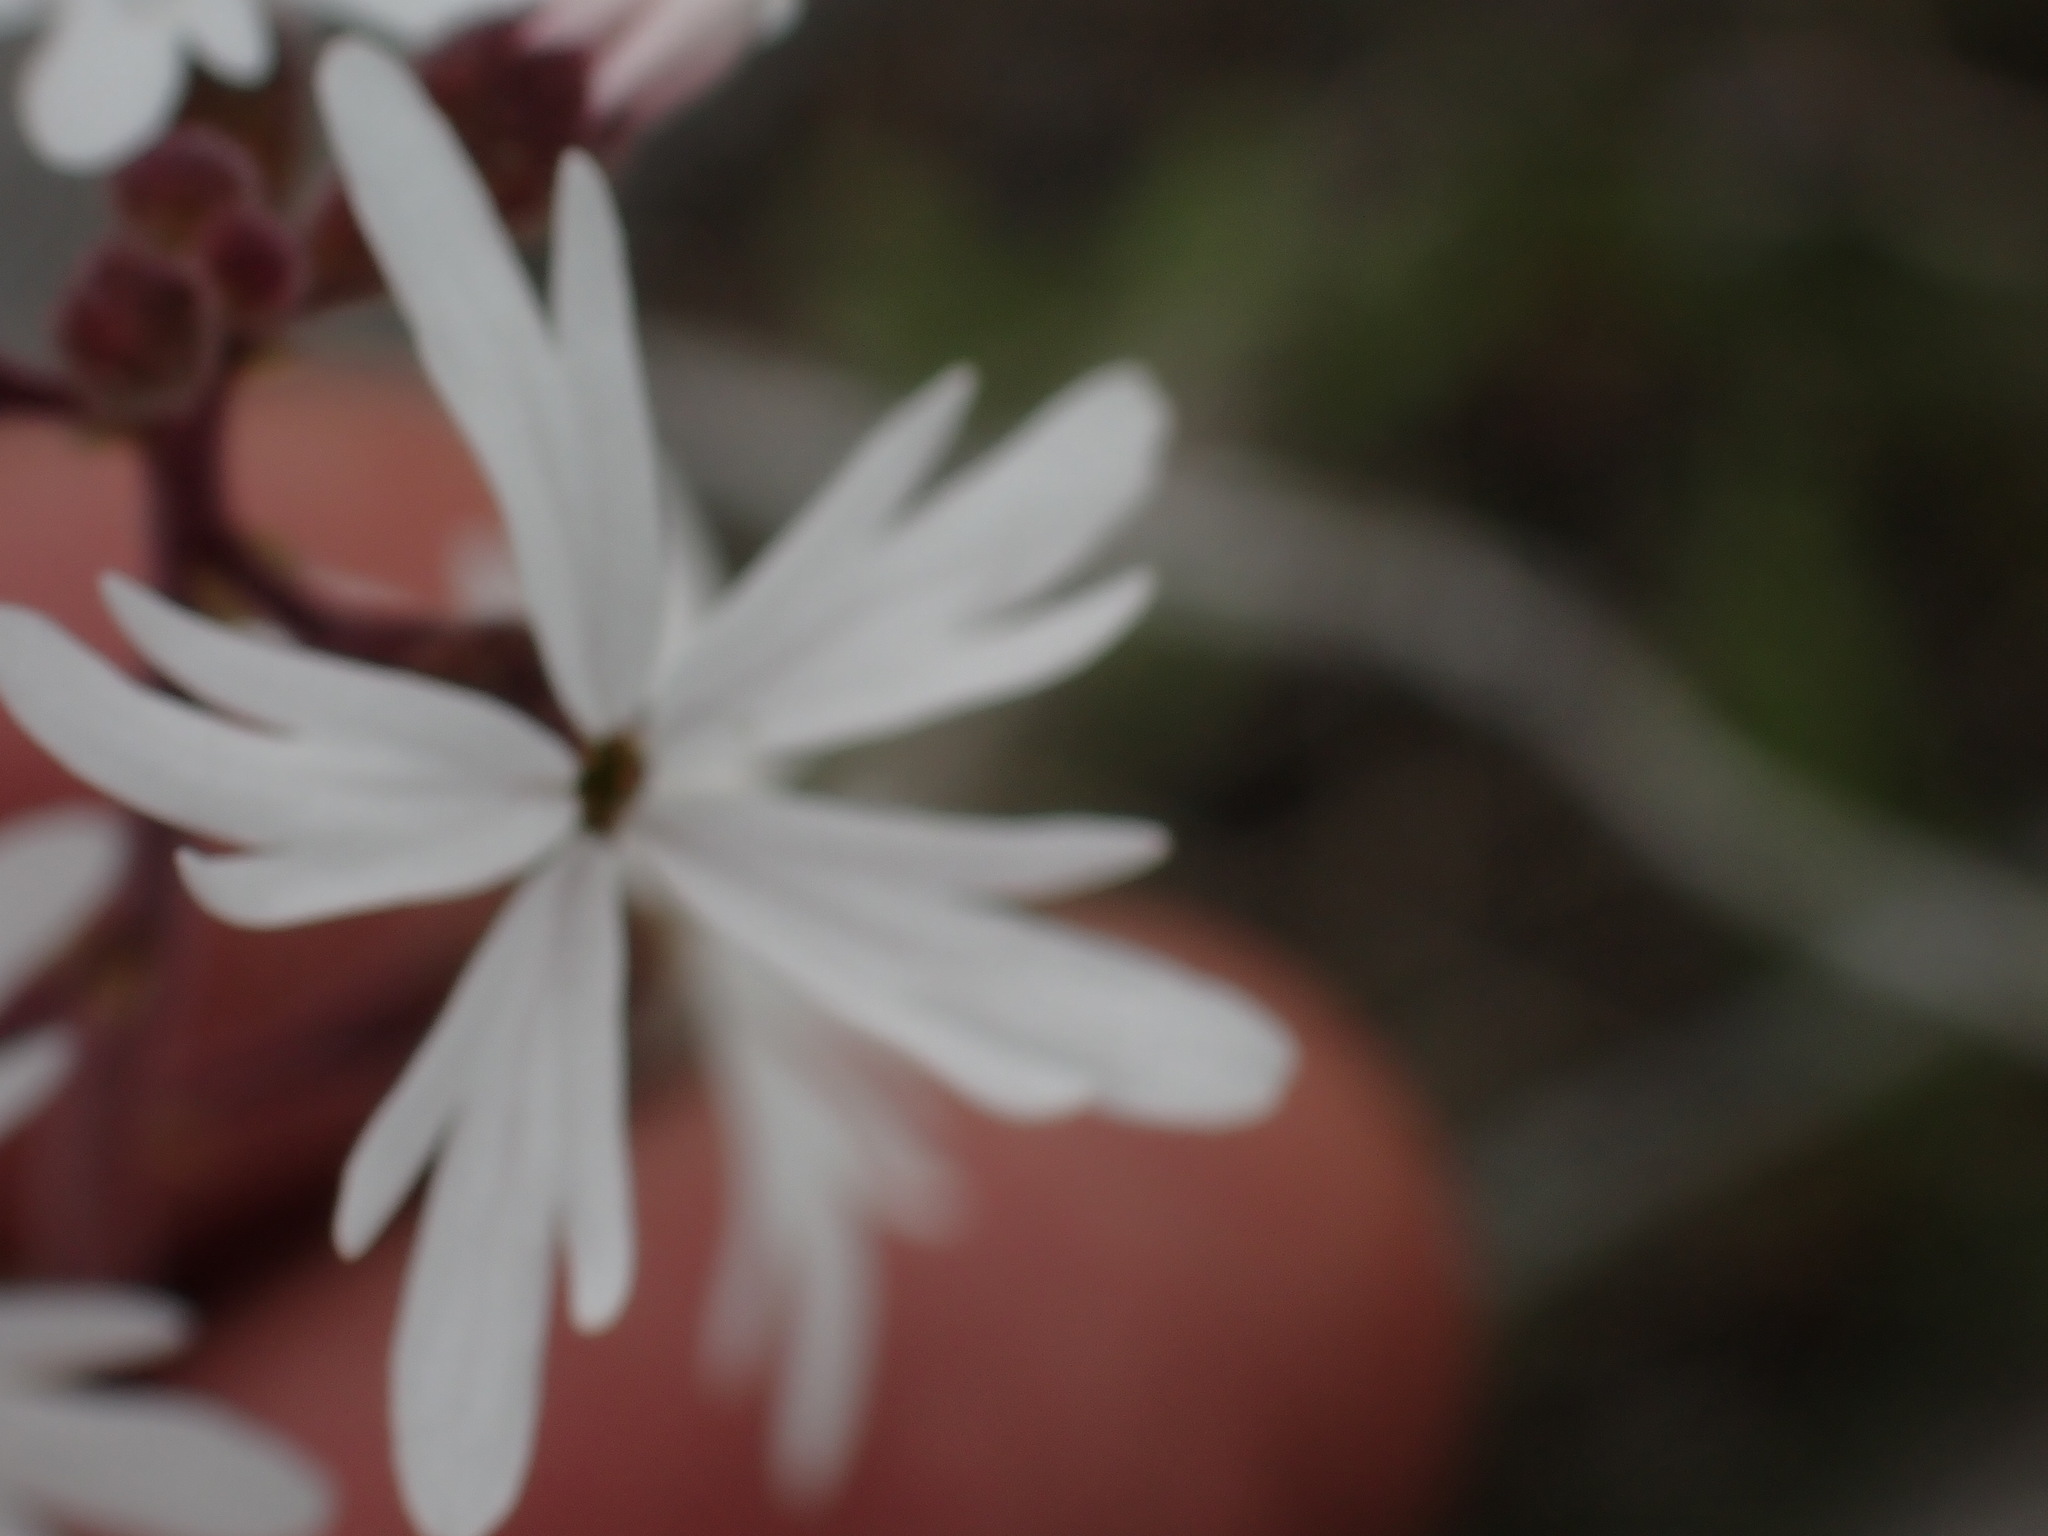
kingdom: Plantae
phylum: Tracheophyta
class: Magnoliopsida
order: Saxifragales
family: Saxifragaceae
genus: Lithophragma
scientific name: Lithophragma parviflorum
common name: Small-flowered fringe-cup
